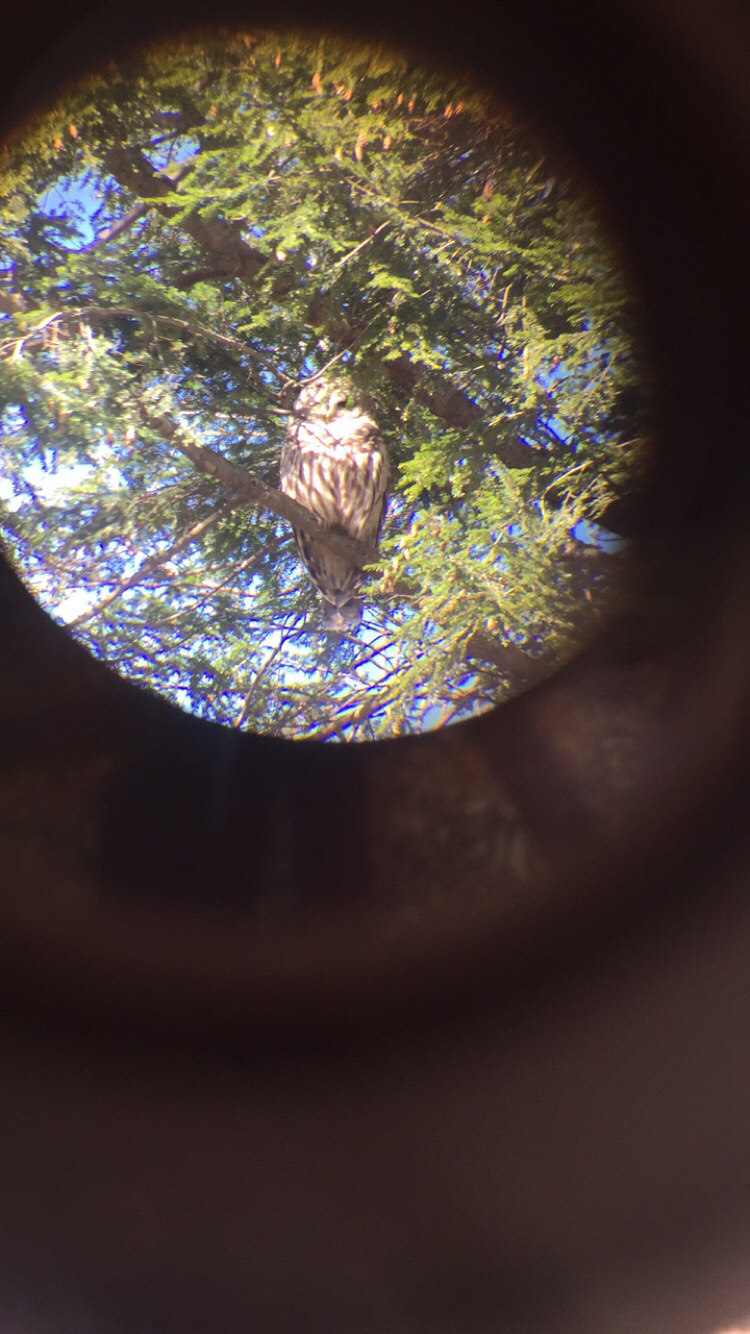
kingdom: Animalia
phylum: Chordata
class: Aves
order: Strigiformes
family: Strigidae
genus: Strix
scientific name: Strix varia
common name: Barred owl
